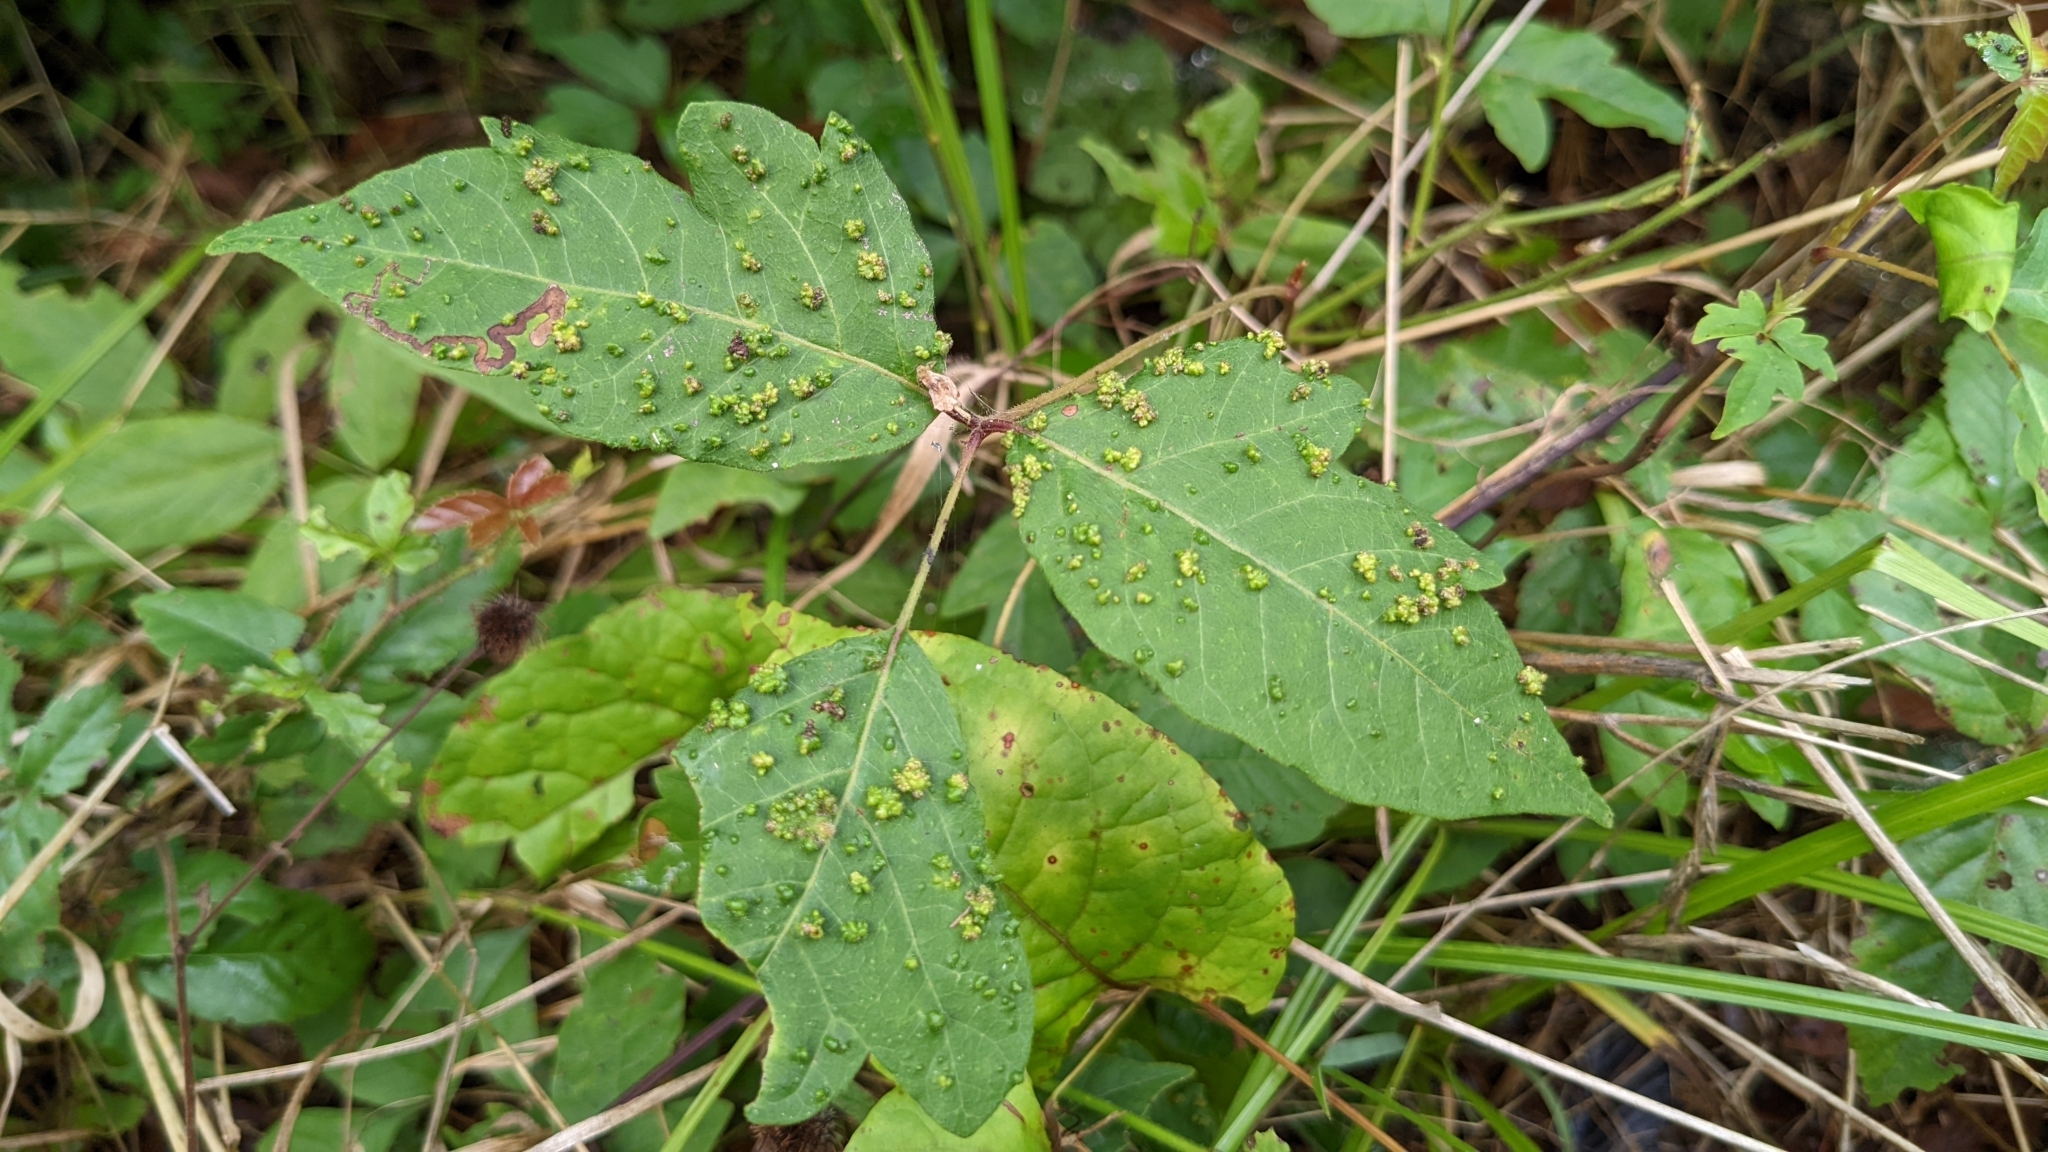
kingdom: Animalia
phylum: Arthropoda
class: Arachnida
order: Trombidiformes
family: Eriophyidae
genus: Aculops
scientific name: Aculops
